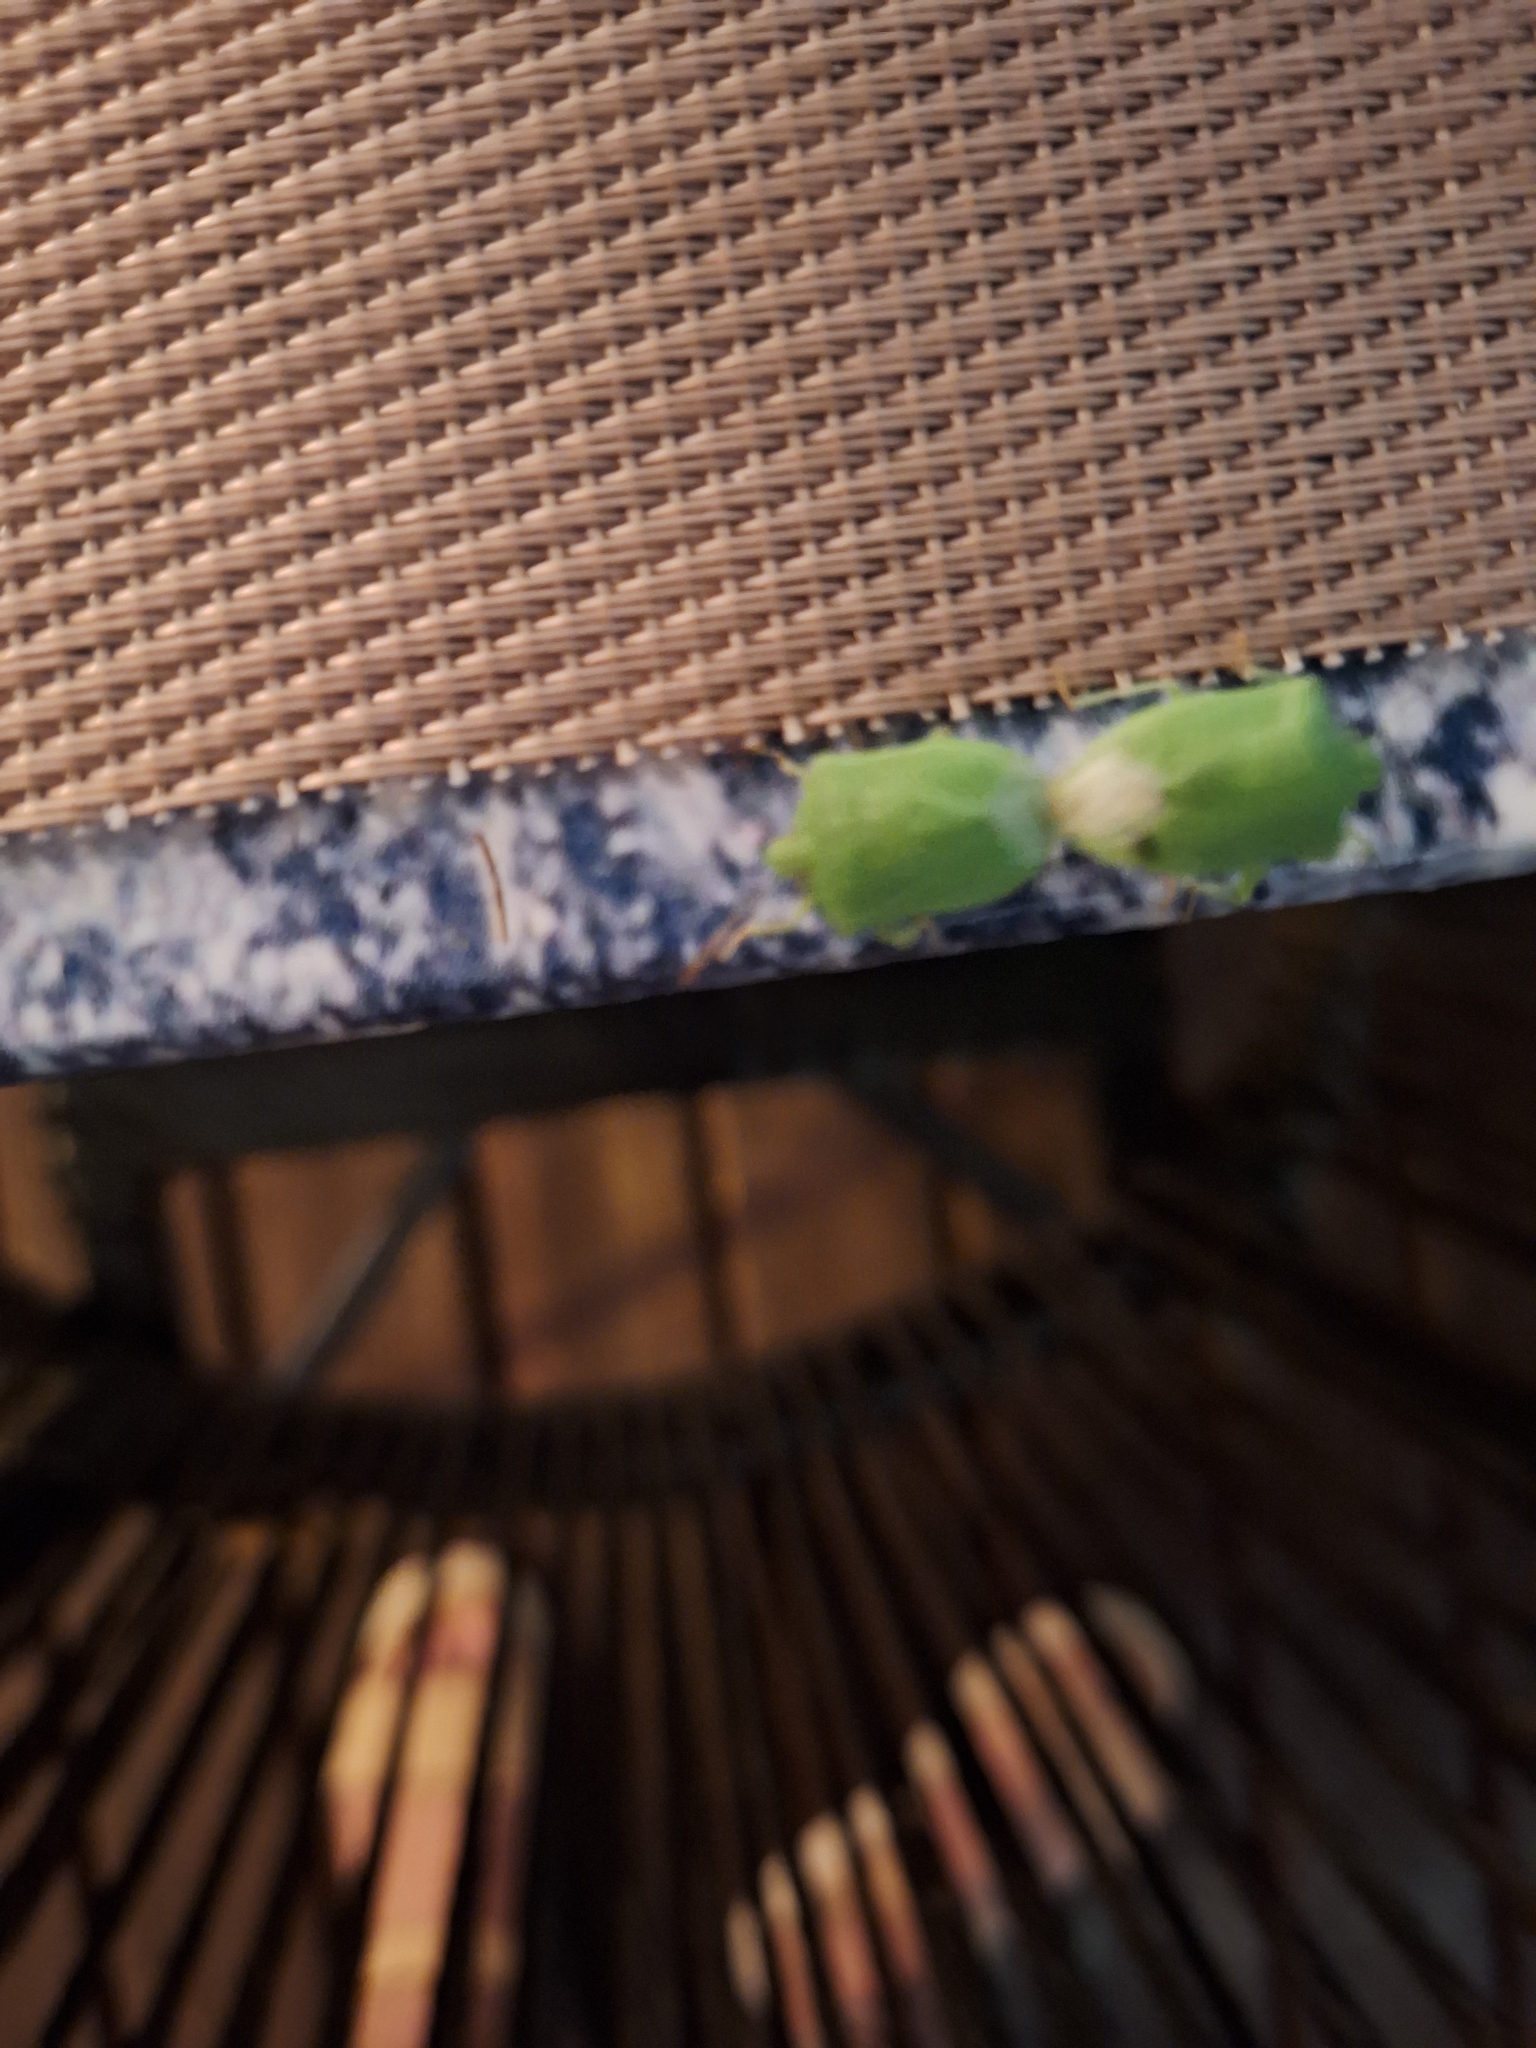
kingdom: Animalia
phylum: Arthropoda
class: Insecta
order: Hemiptera
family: Pentatomidae
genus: Nezara
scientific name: Nezara viridula
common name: Southern green stink bug
